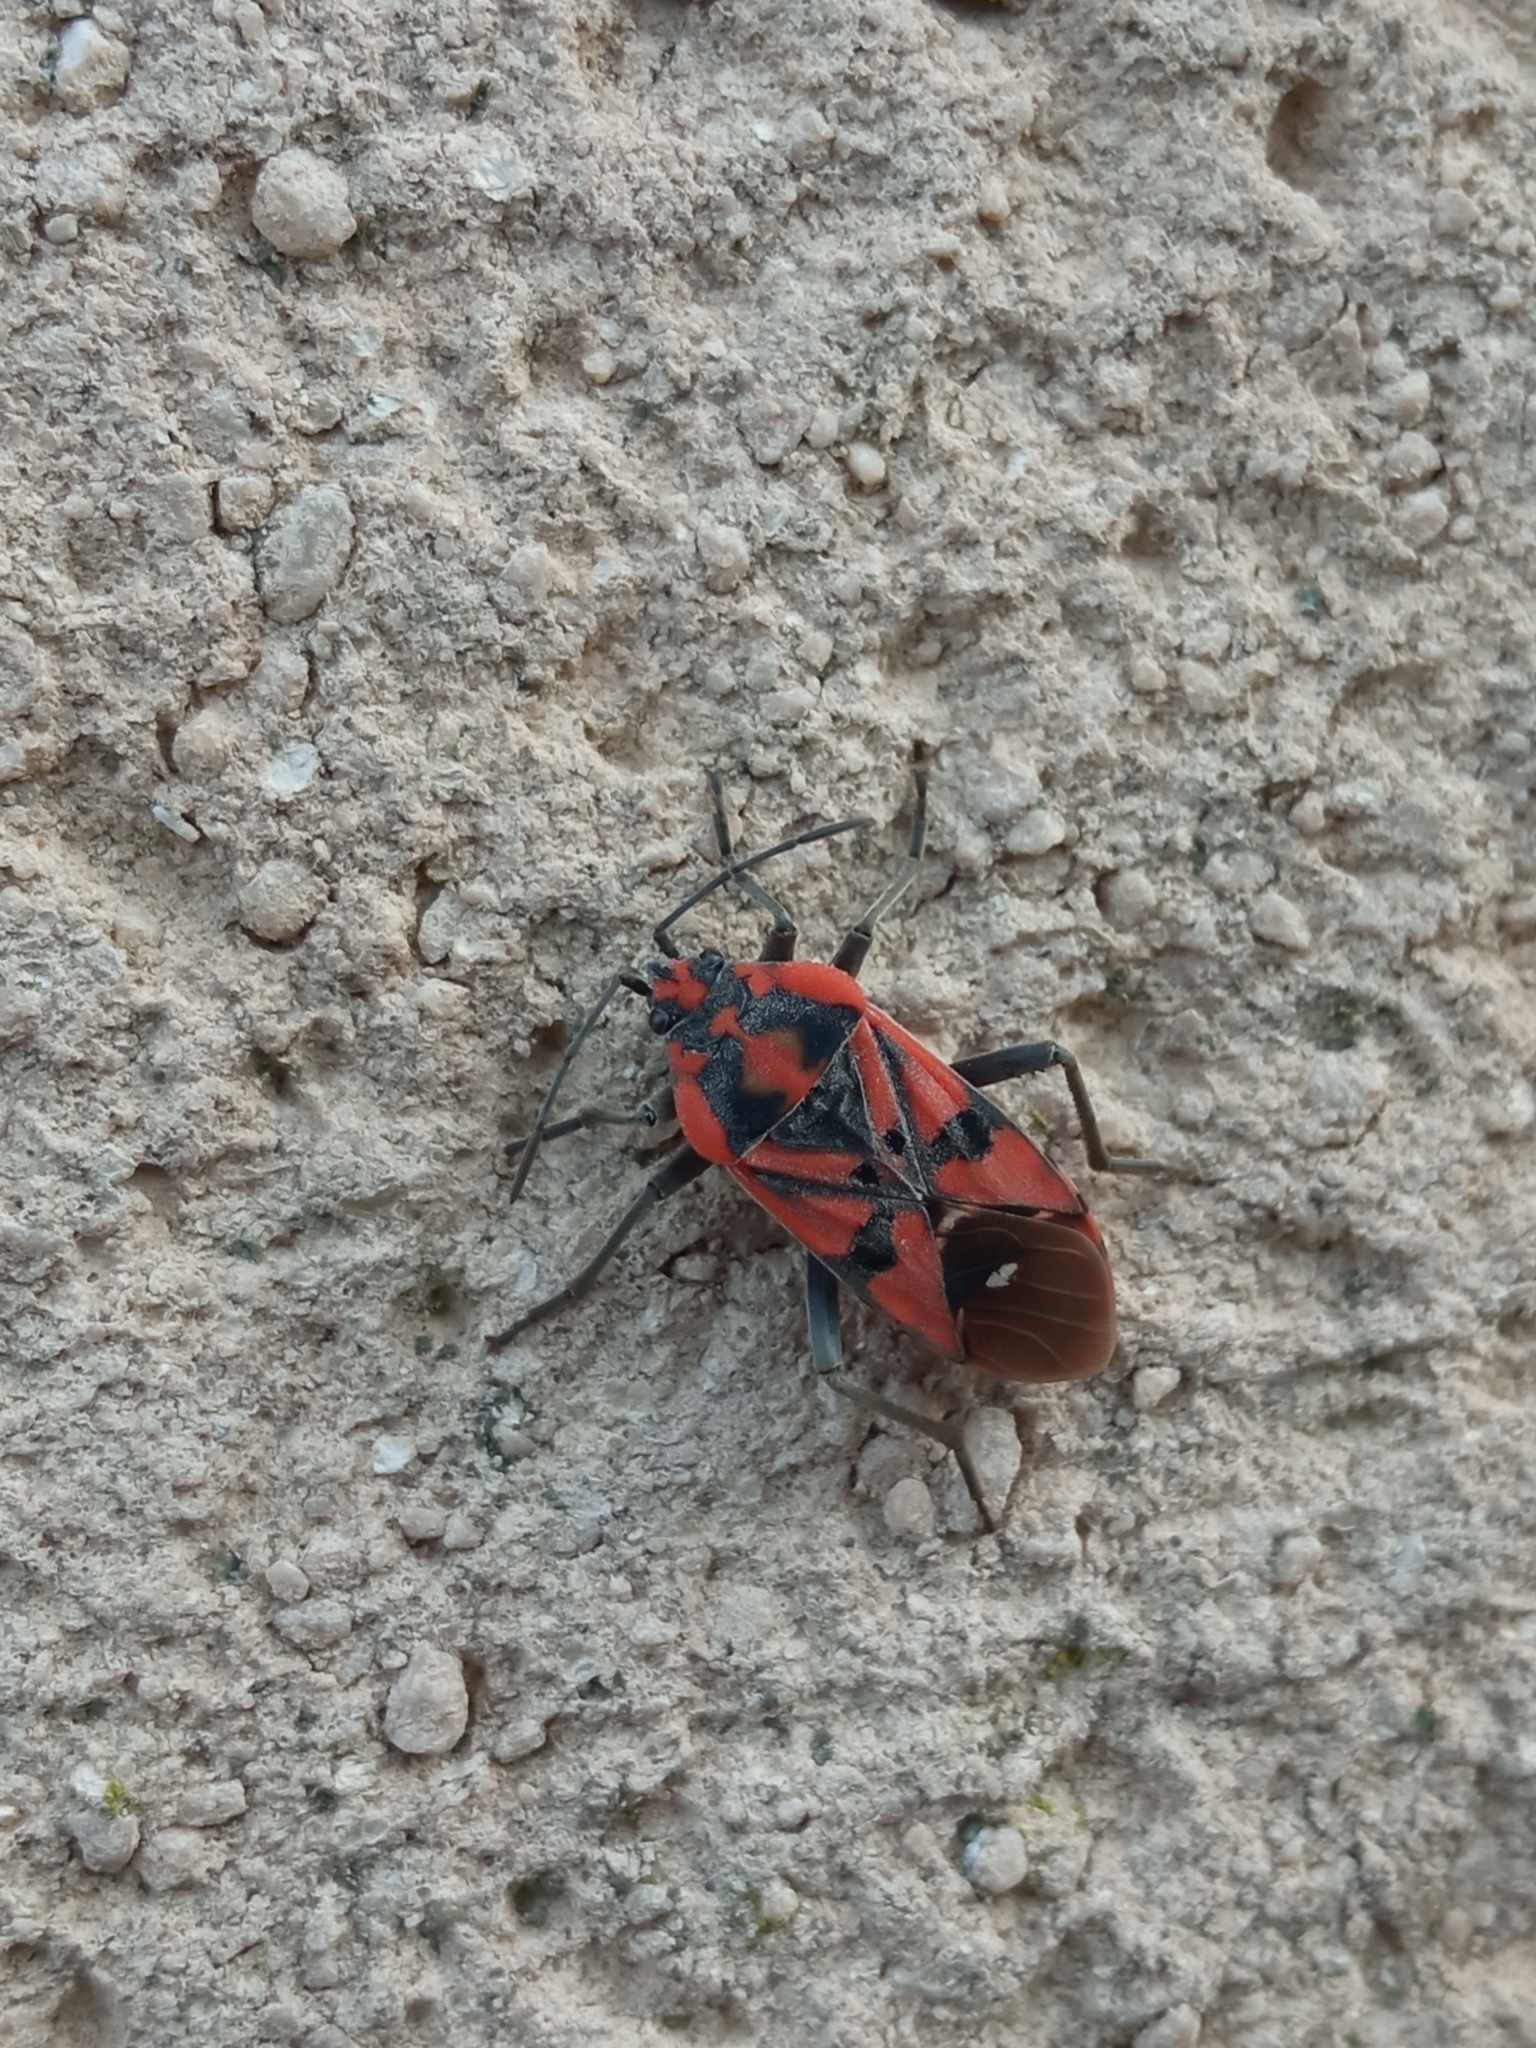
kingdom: Animalia
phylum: Arthropoda
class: Insecta
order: Hemiptera
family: Lygaeidae
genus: Spilostethus
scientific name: Spilostethus pandurus
